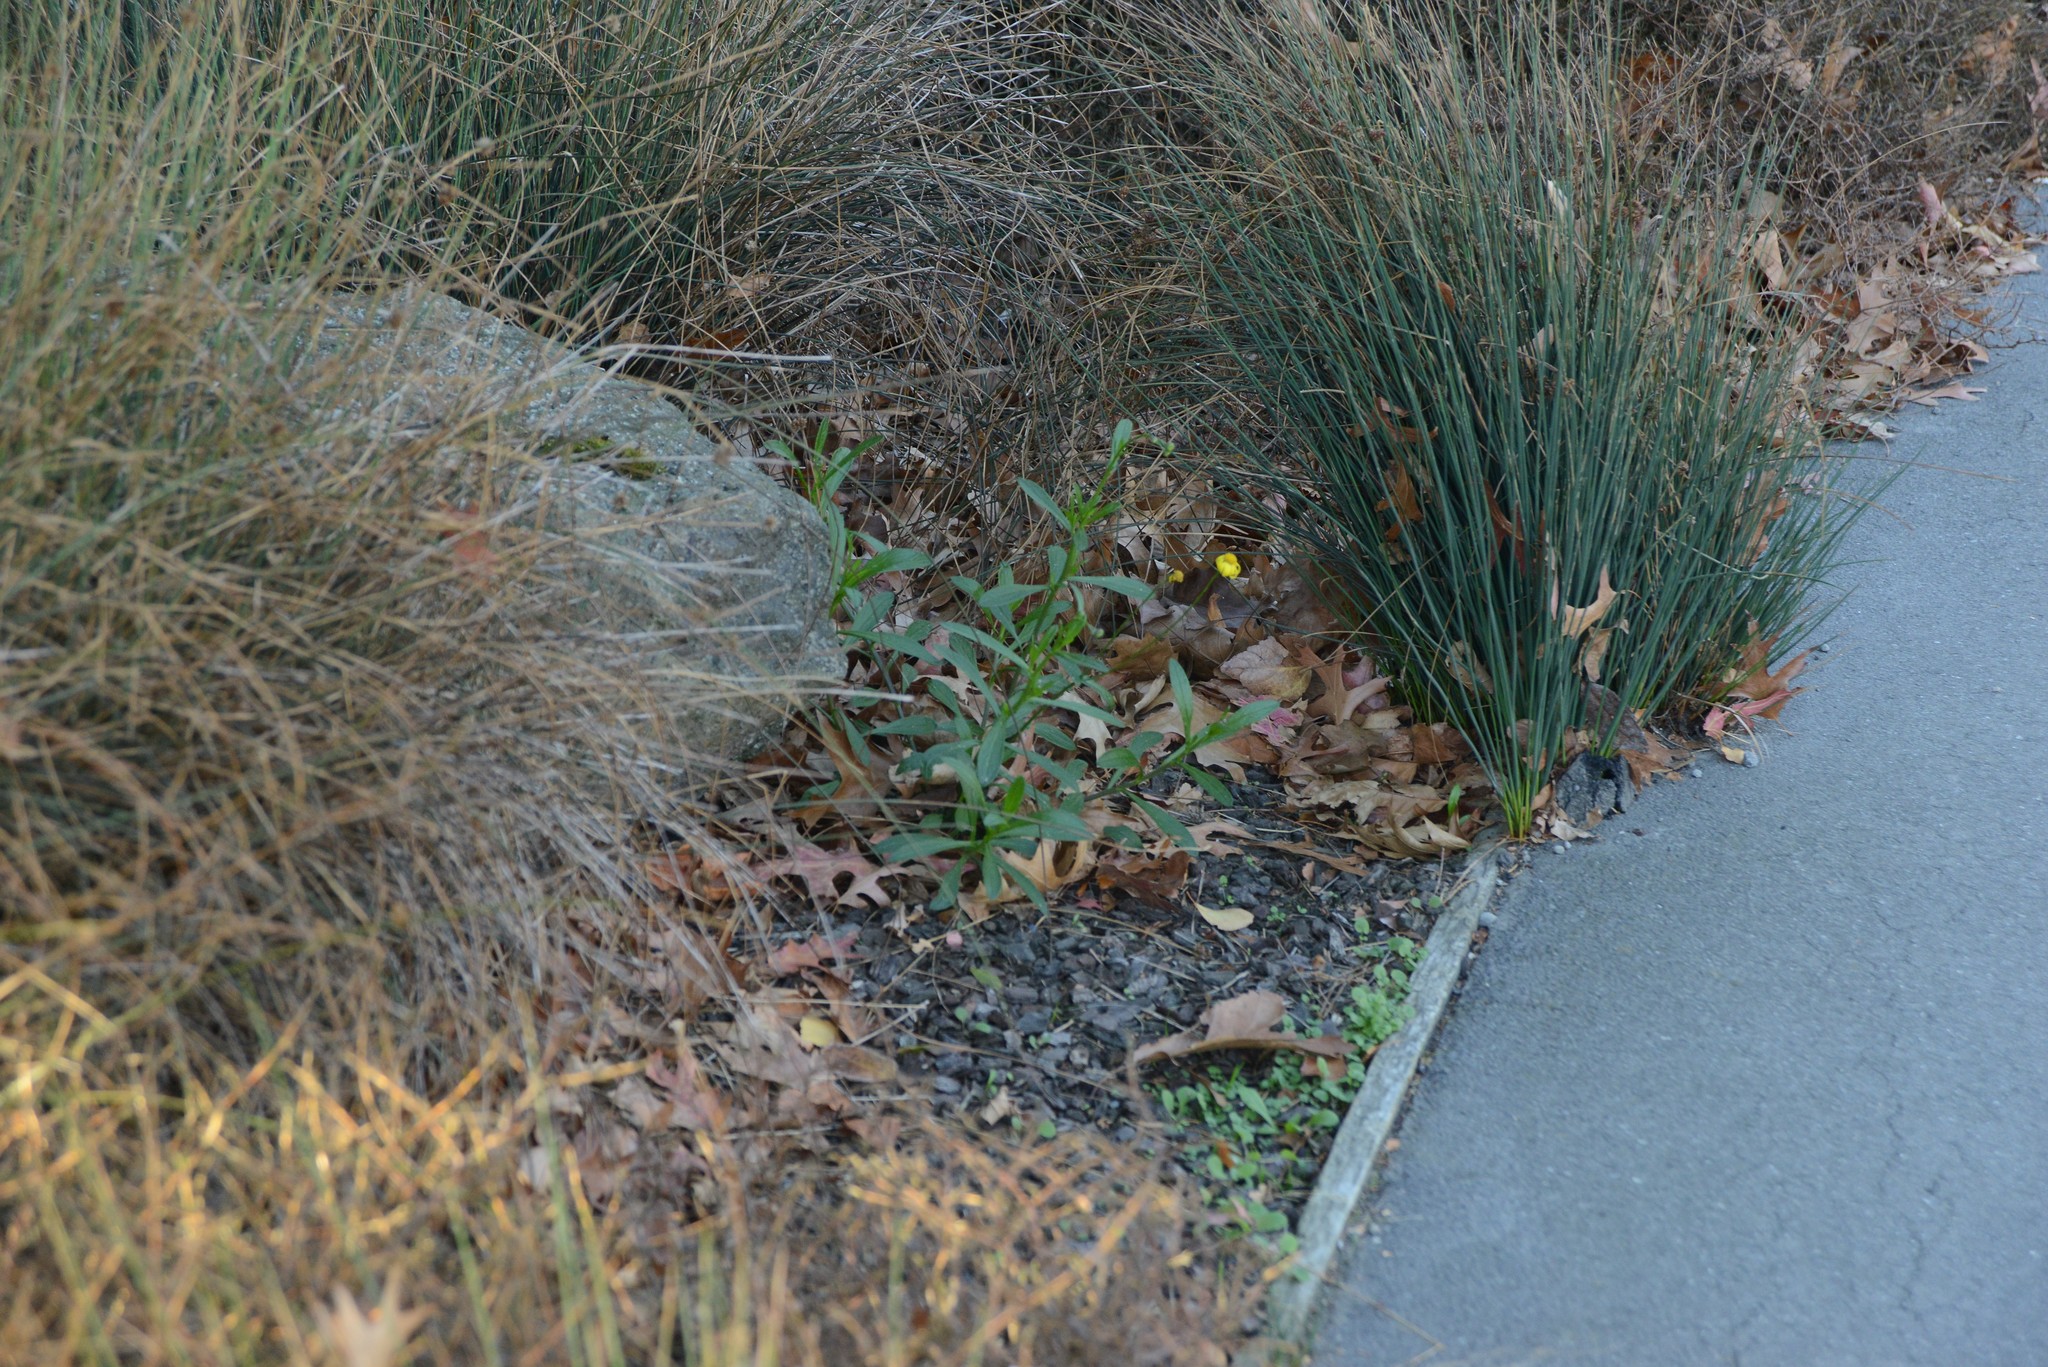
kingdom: Plantae
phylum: Tracheophyta
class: Magnoliopsida
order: Asterales
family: Asteraceae
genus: Senecio
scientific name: Senecio skirrhodon
